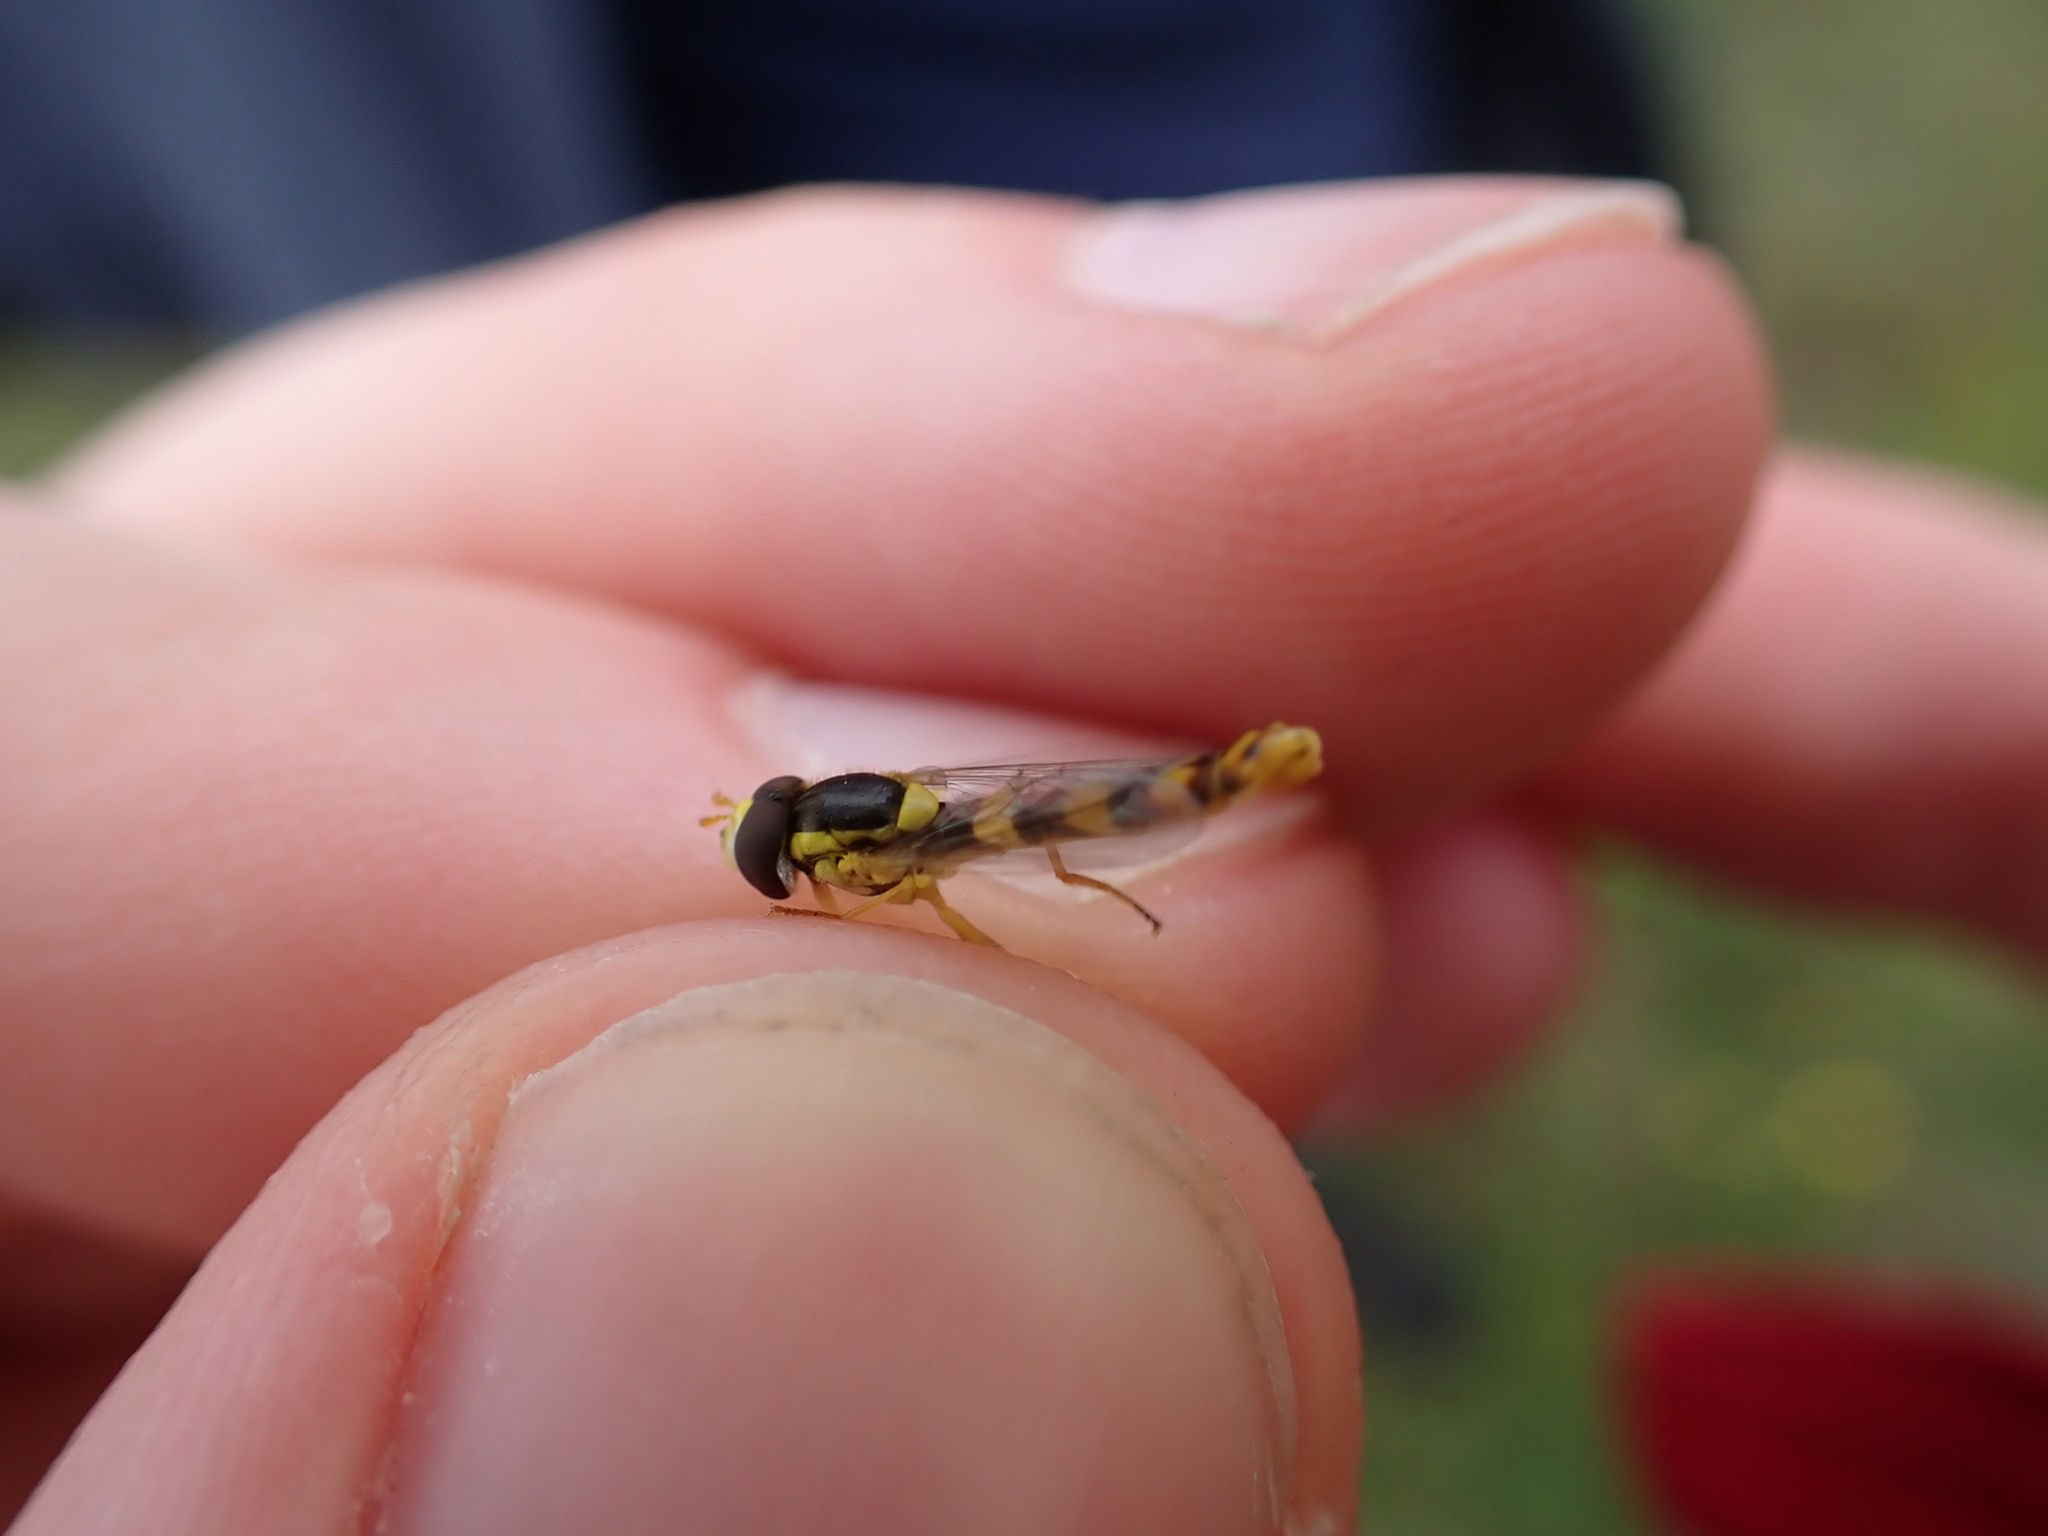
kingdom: Animalia
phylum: Arthropoda
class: Insecta
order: Diptera
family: Syrphidae
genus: Sphaerophoria
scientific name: Sphaerophoria scripta
